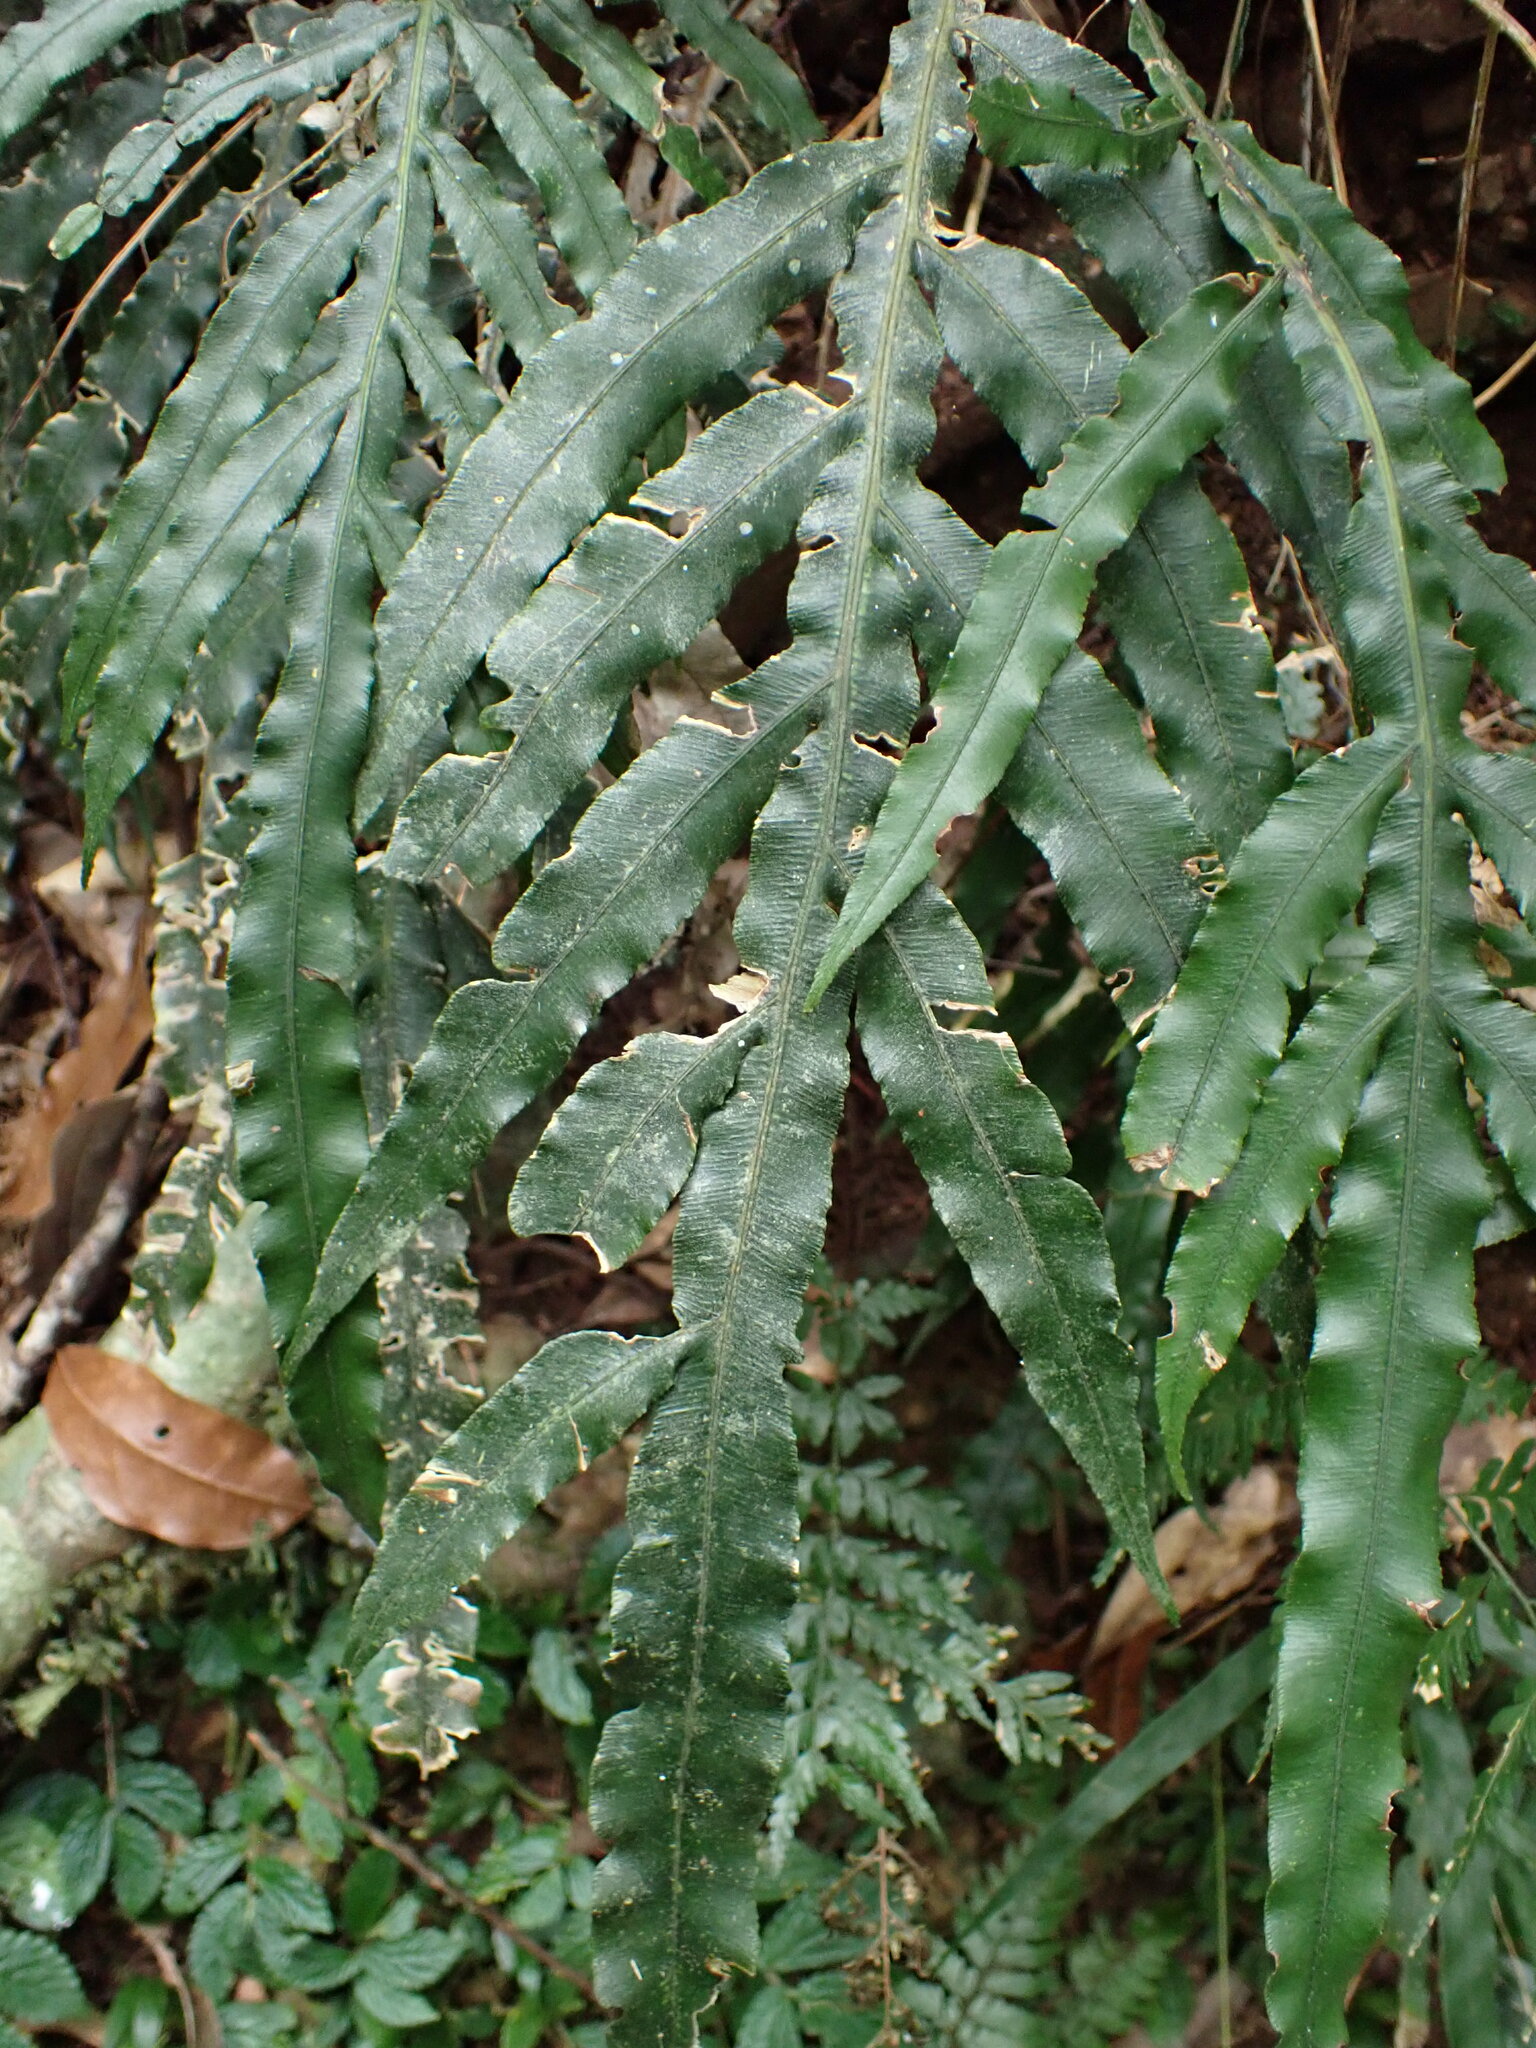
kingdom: Plantae
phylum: Tracheophyta
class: Polypodiopsida
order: Polypodiales
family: Blechnaceae
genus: Austroblechnum
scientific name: Austroblechnum patersonii
